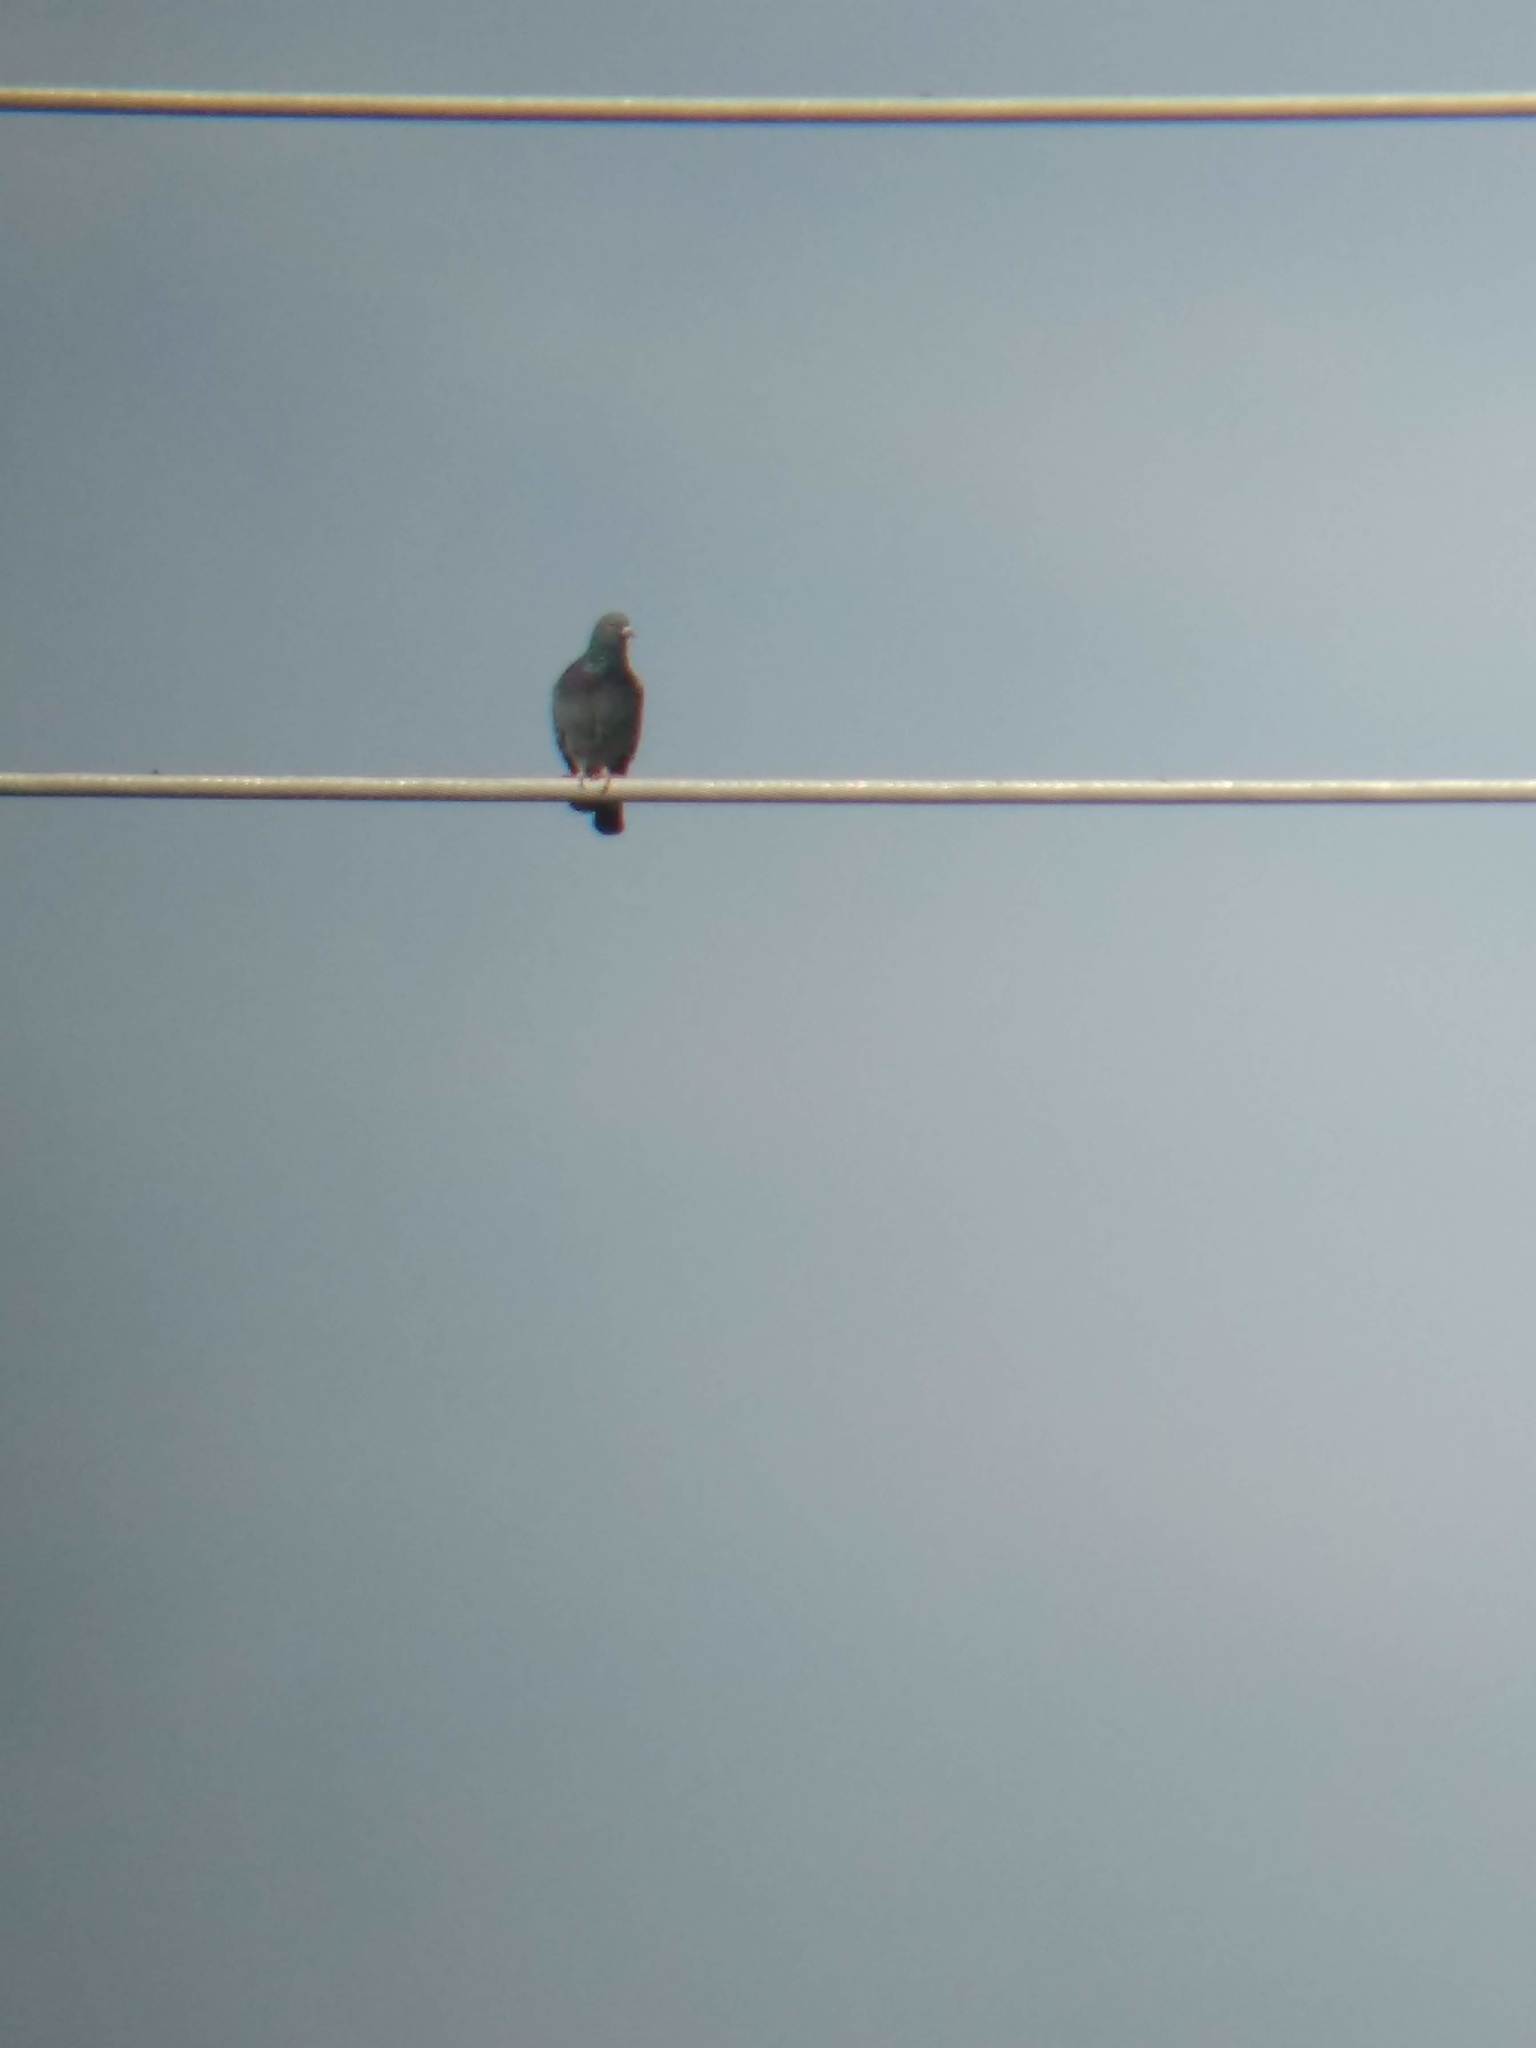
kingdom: Animalia
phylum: Chordata
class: Aves
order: Columbiformes
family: Columbidae
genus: Columba
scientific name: Columba livia
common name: Rock pigeon
